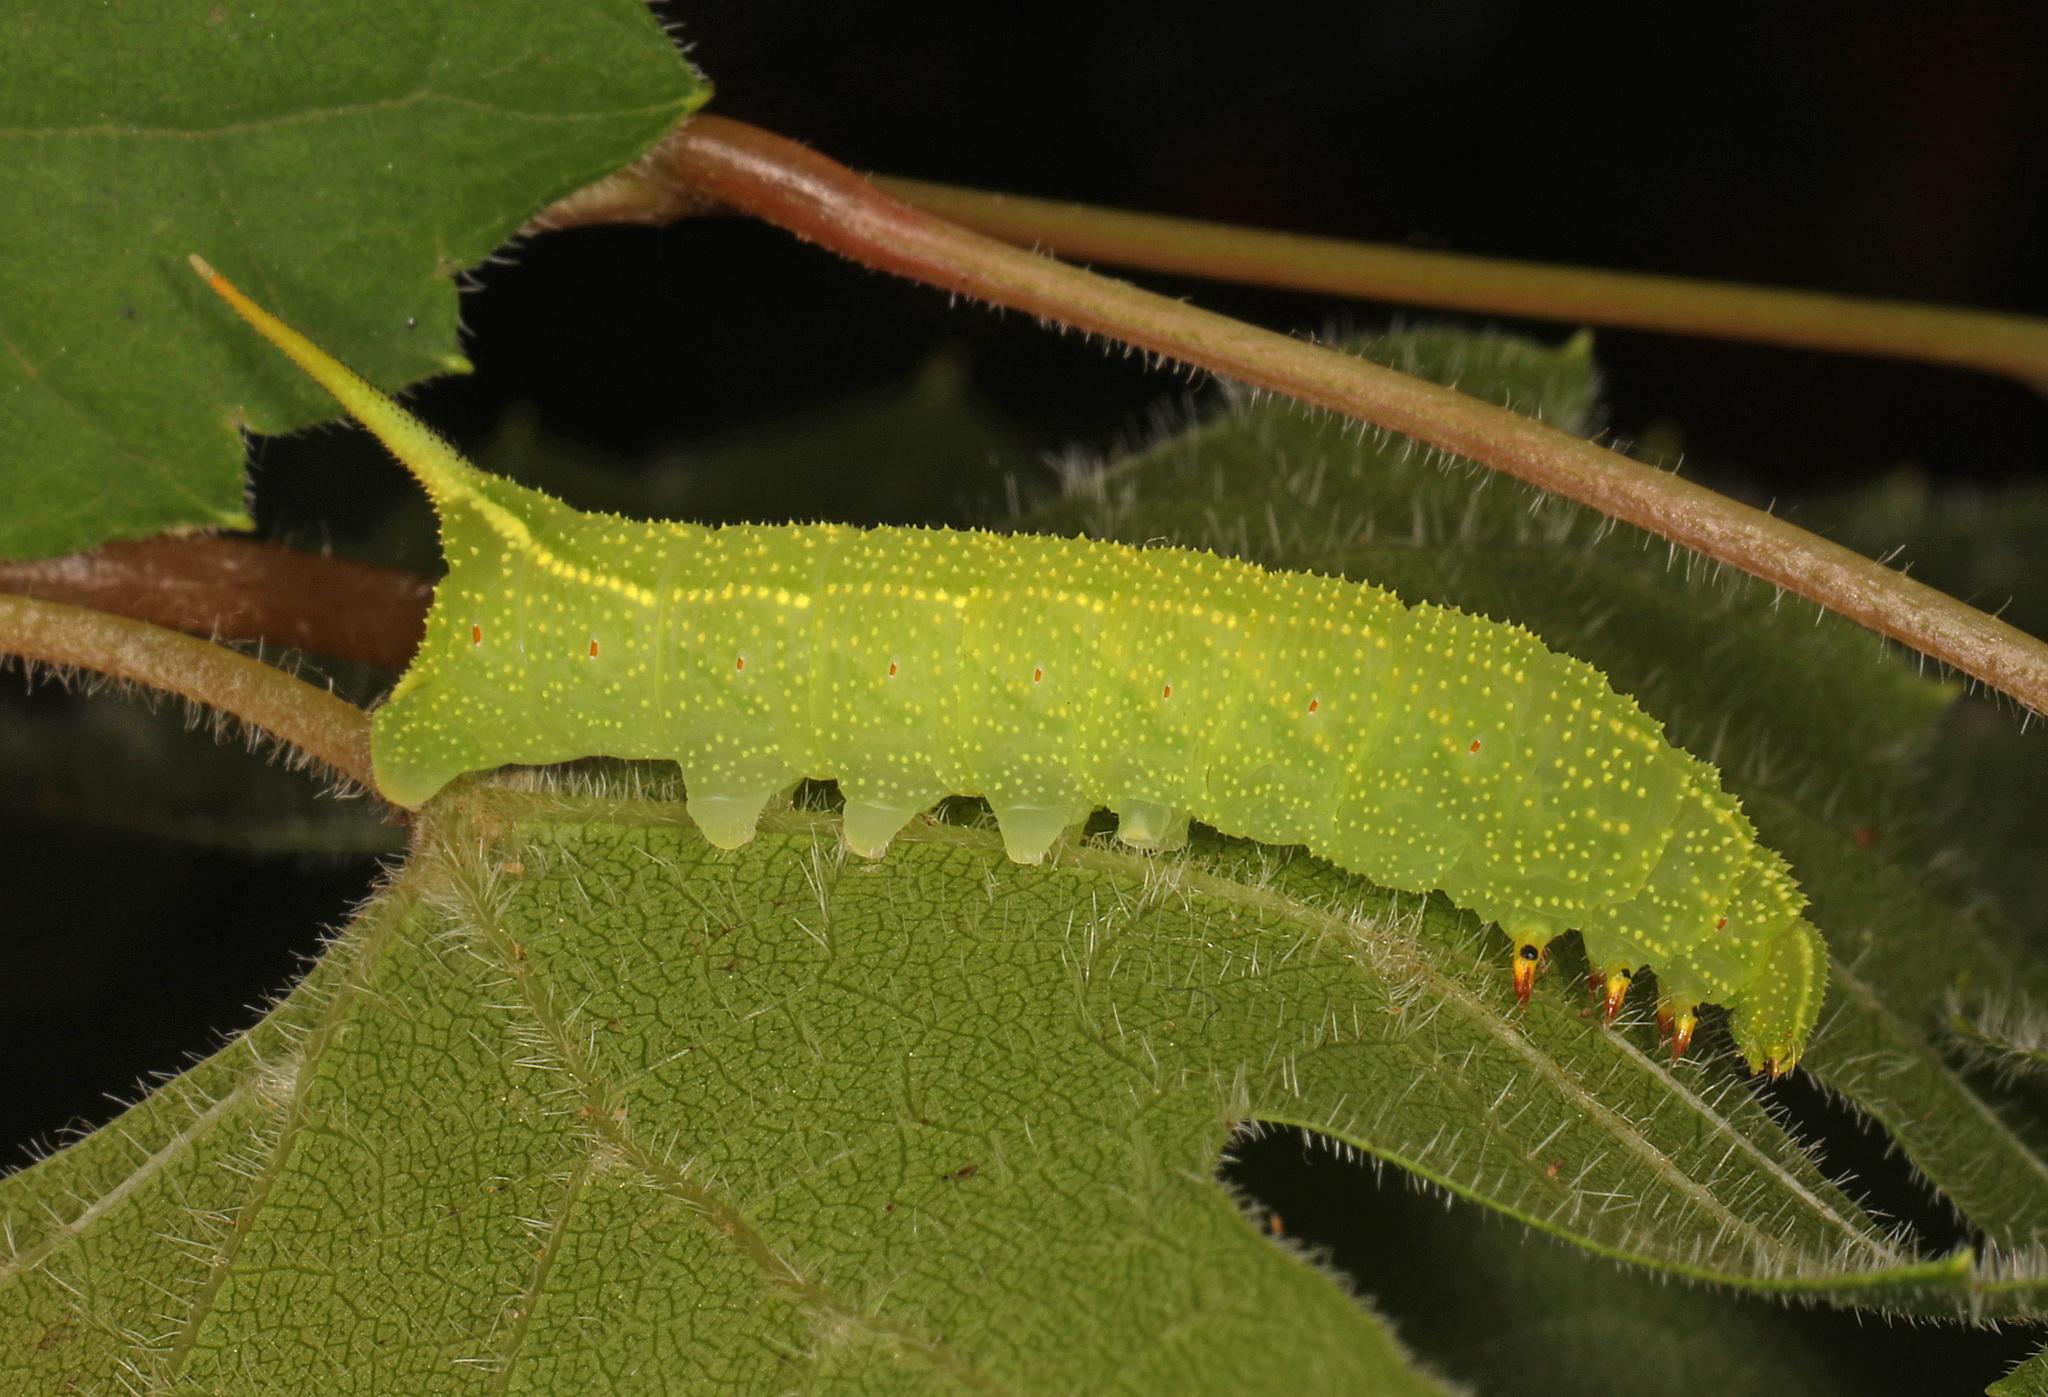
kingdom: Animalia
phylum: Arthropoda
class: Insecta
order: Lepidoptera
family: Sphingidae
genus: Darapsa
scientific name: Darapsa myron
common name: Hog sphinx
